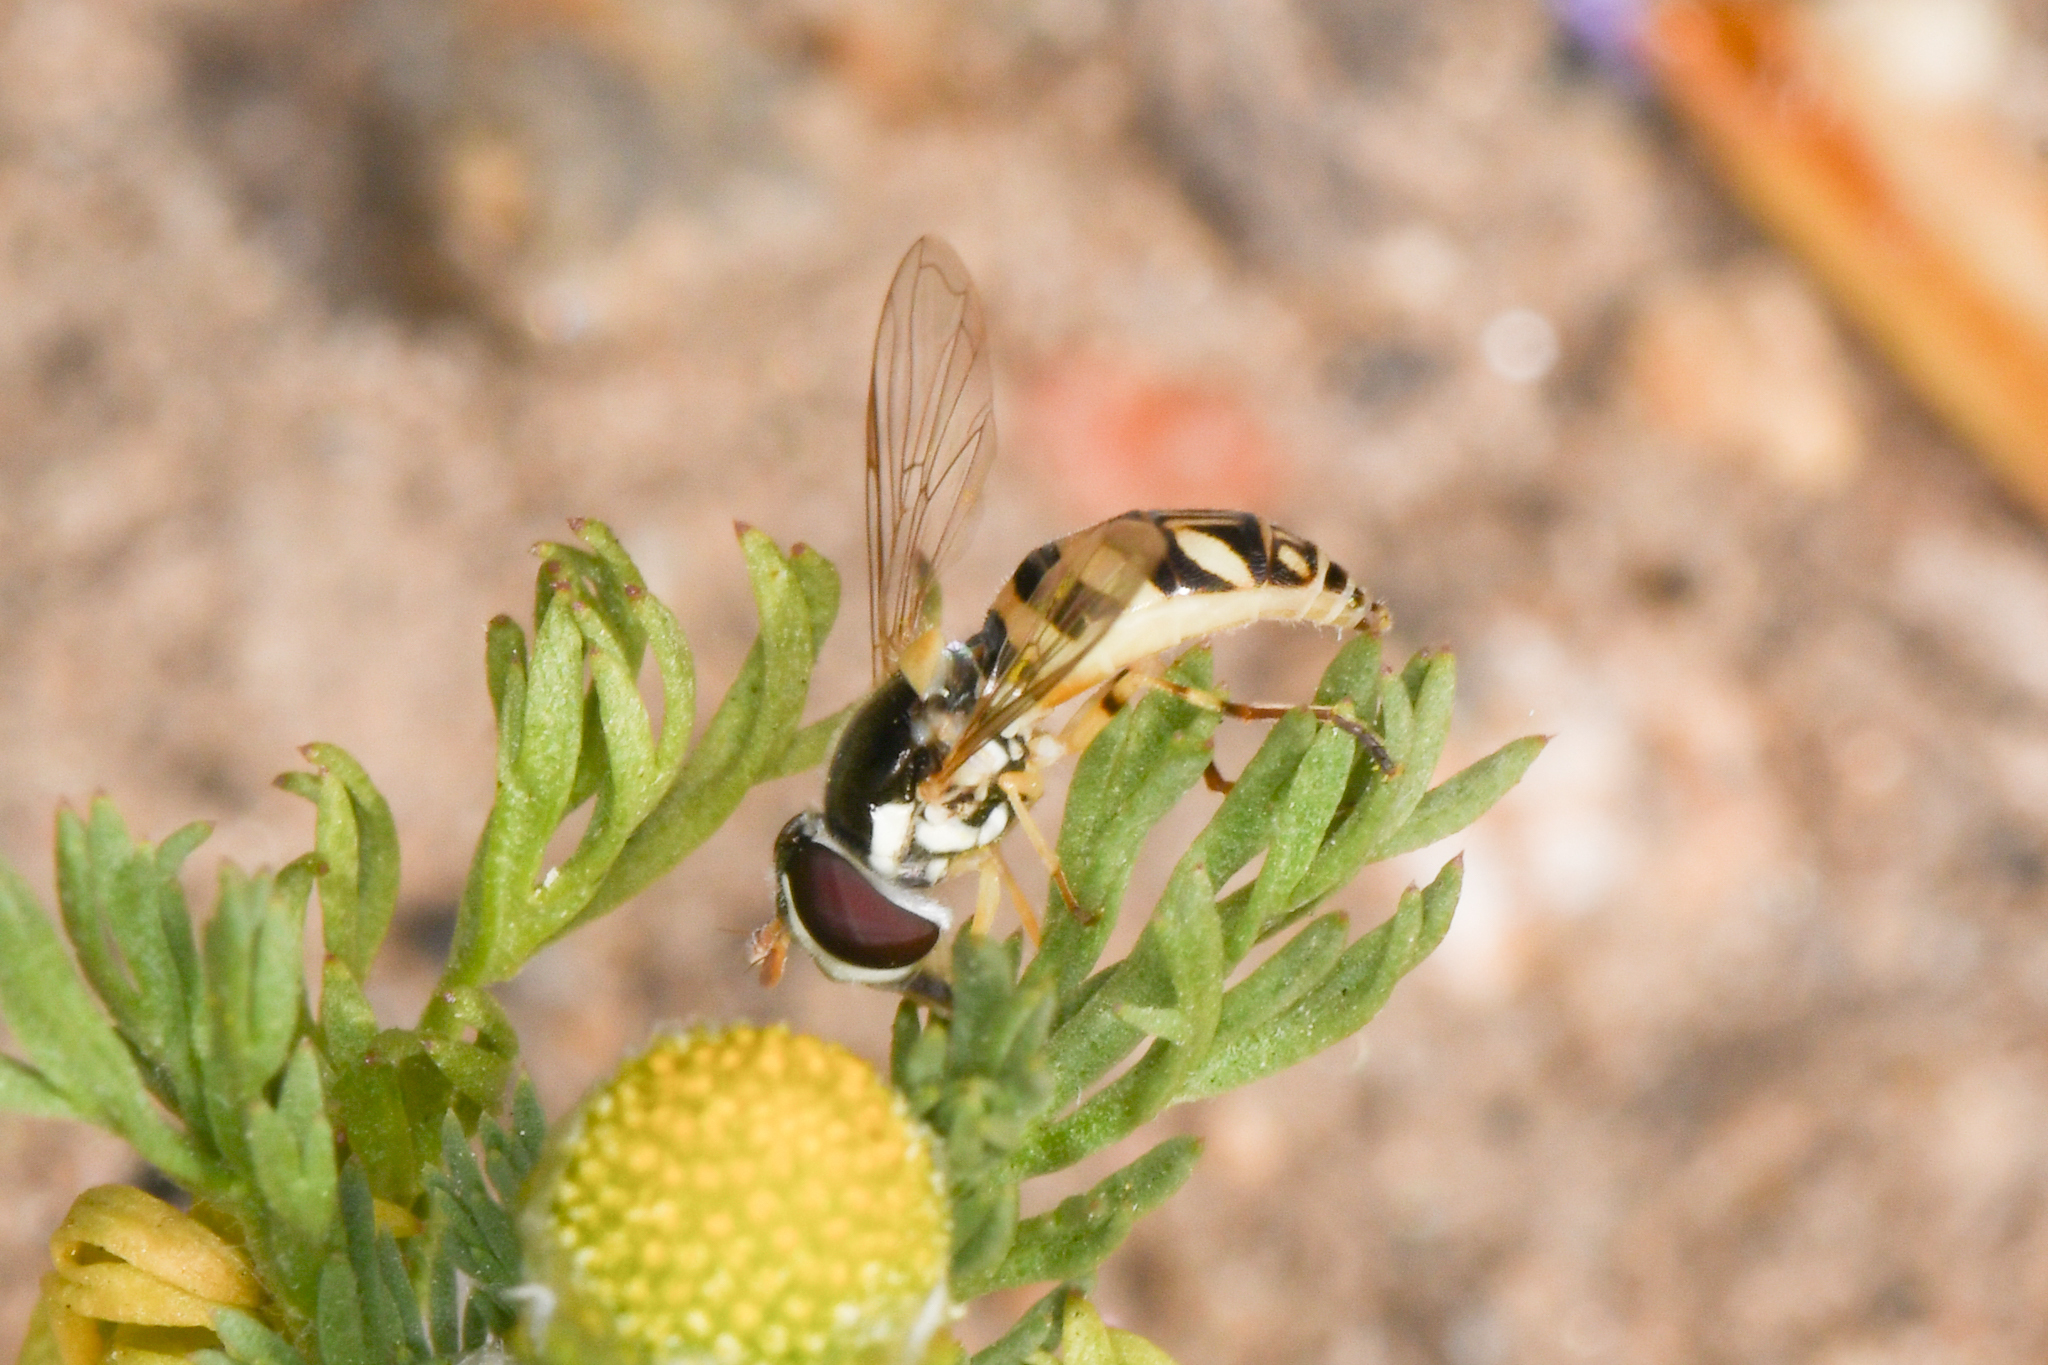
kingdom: Animalia
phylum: Arthropoda
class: Insecta
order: Diptera
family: Syrphidae
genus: Allograpta
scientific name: Allograpta exotica
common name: Syrphid fly
